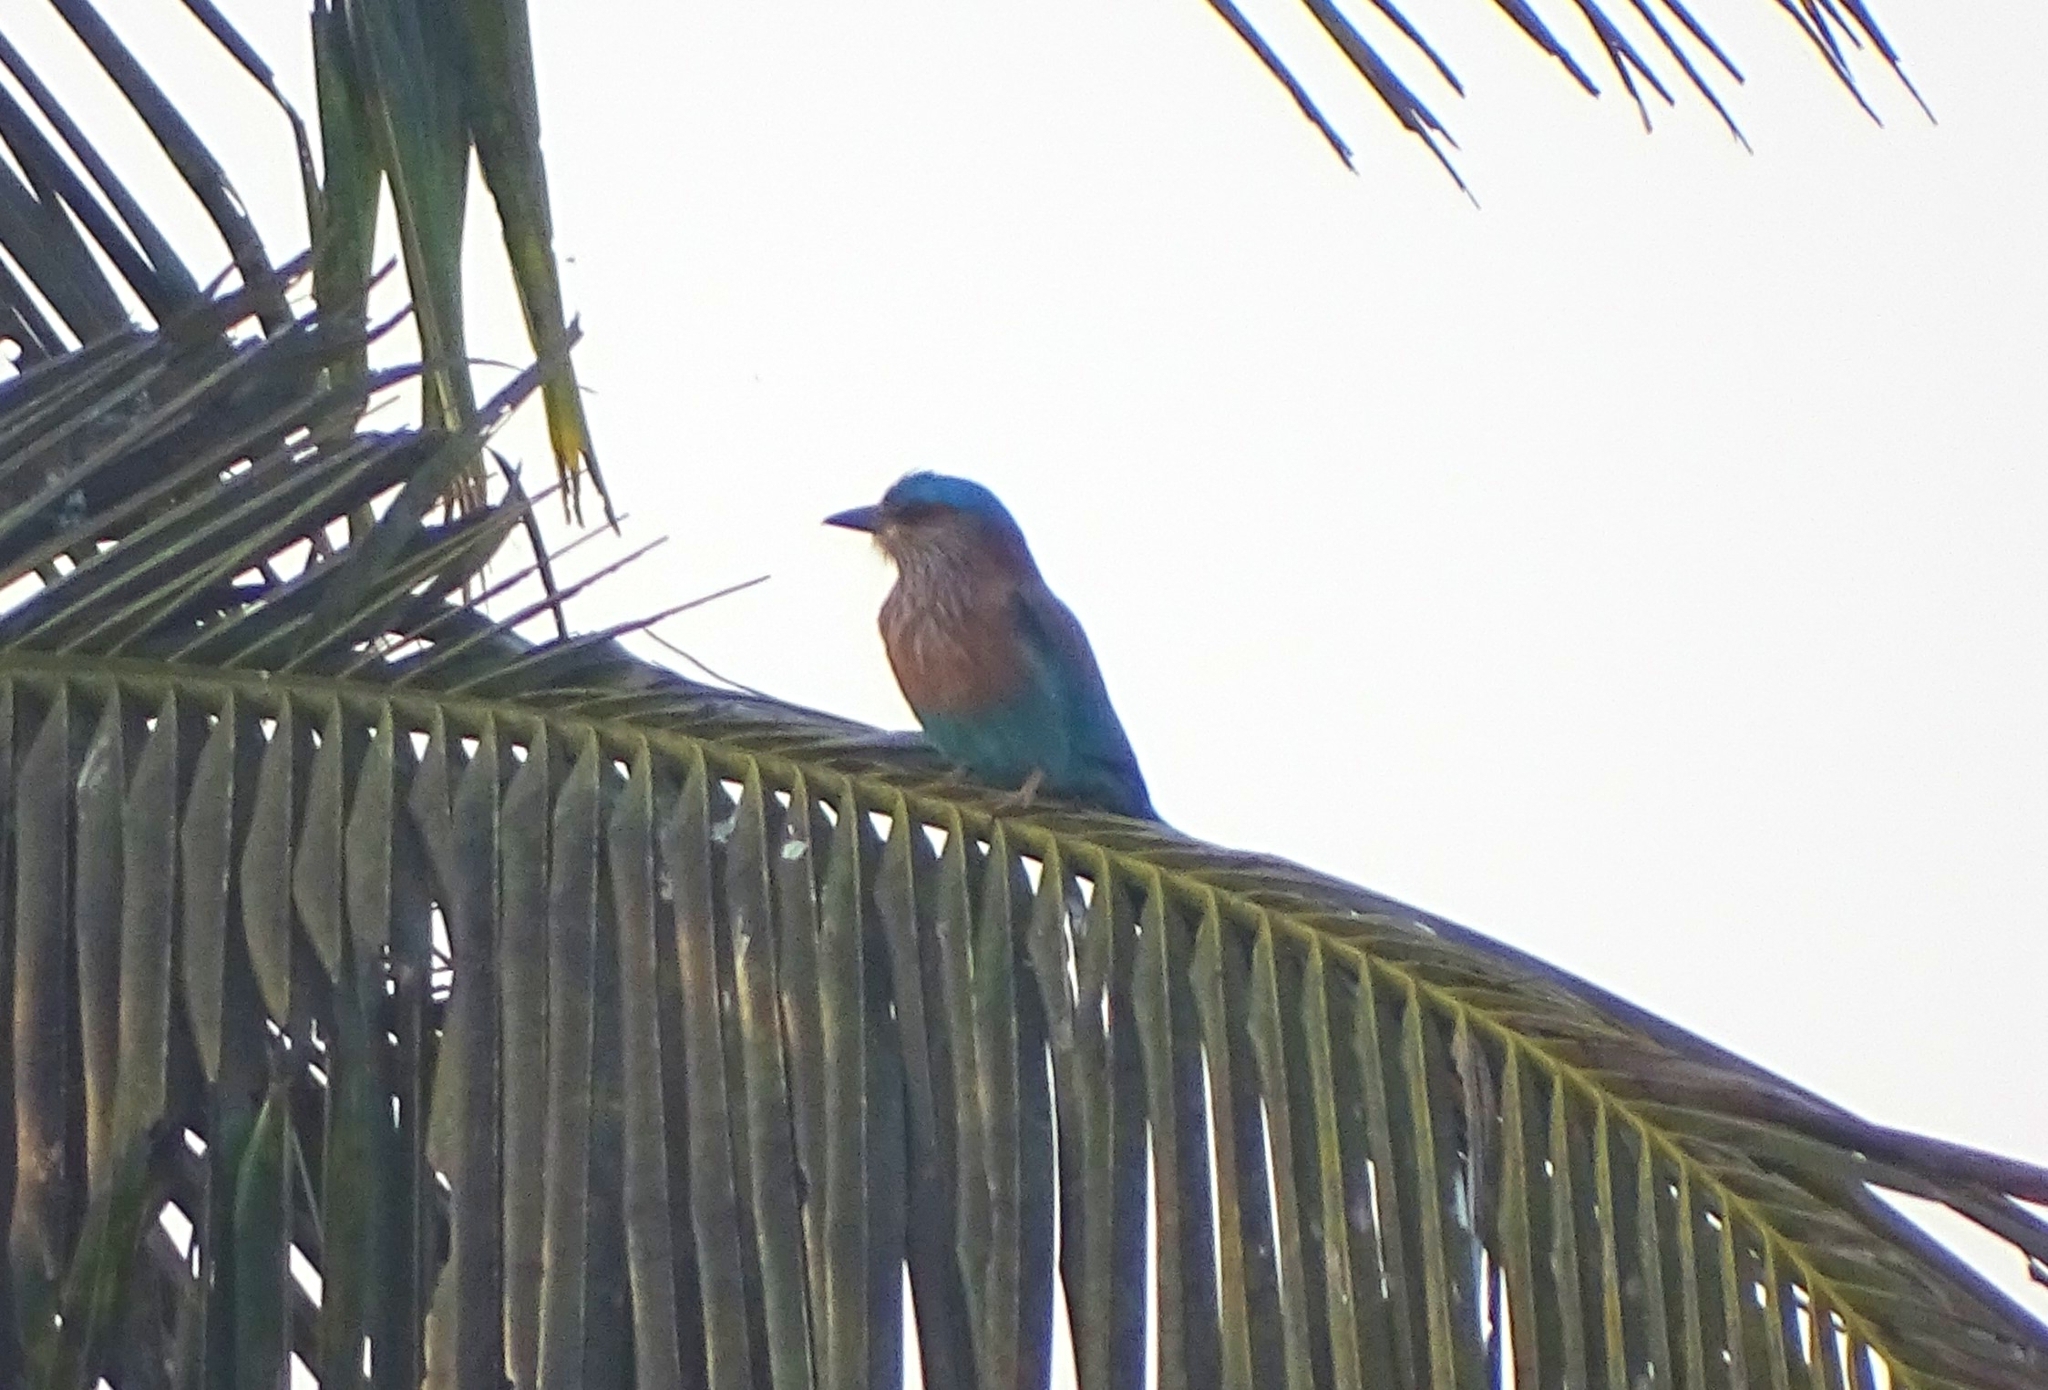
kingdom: Animalia
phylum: Chordata
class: Aves
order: Coraciiformes
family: Coraciidae
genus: Coracias
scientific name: Coracias benghalensis
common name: Indian roller
